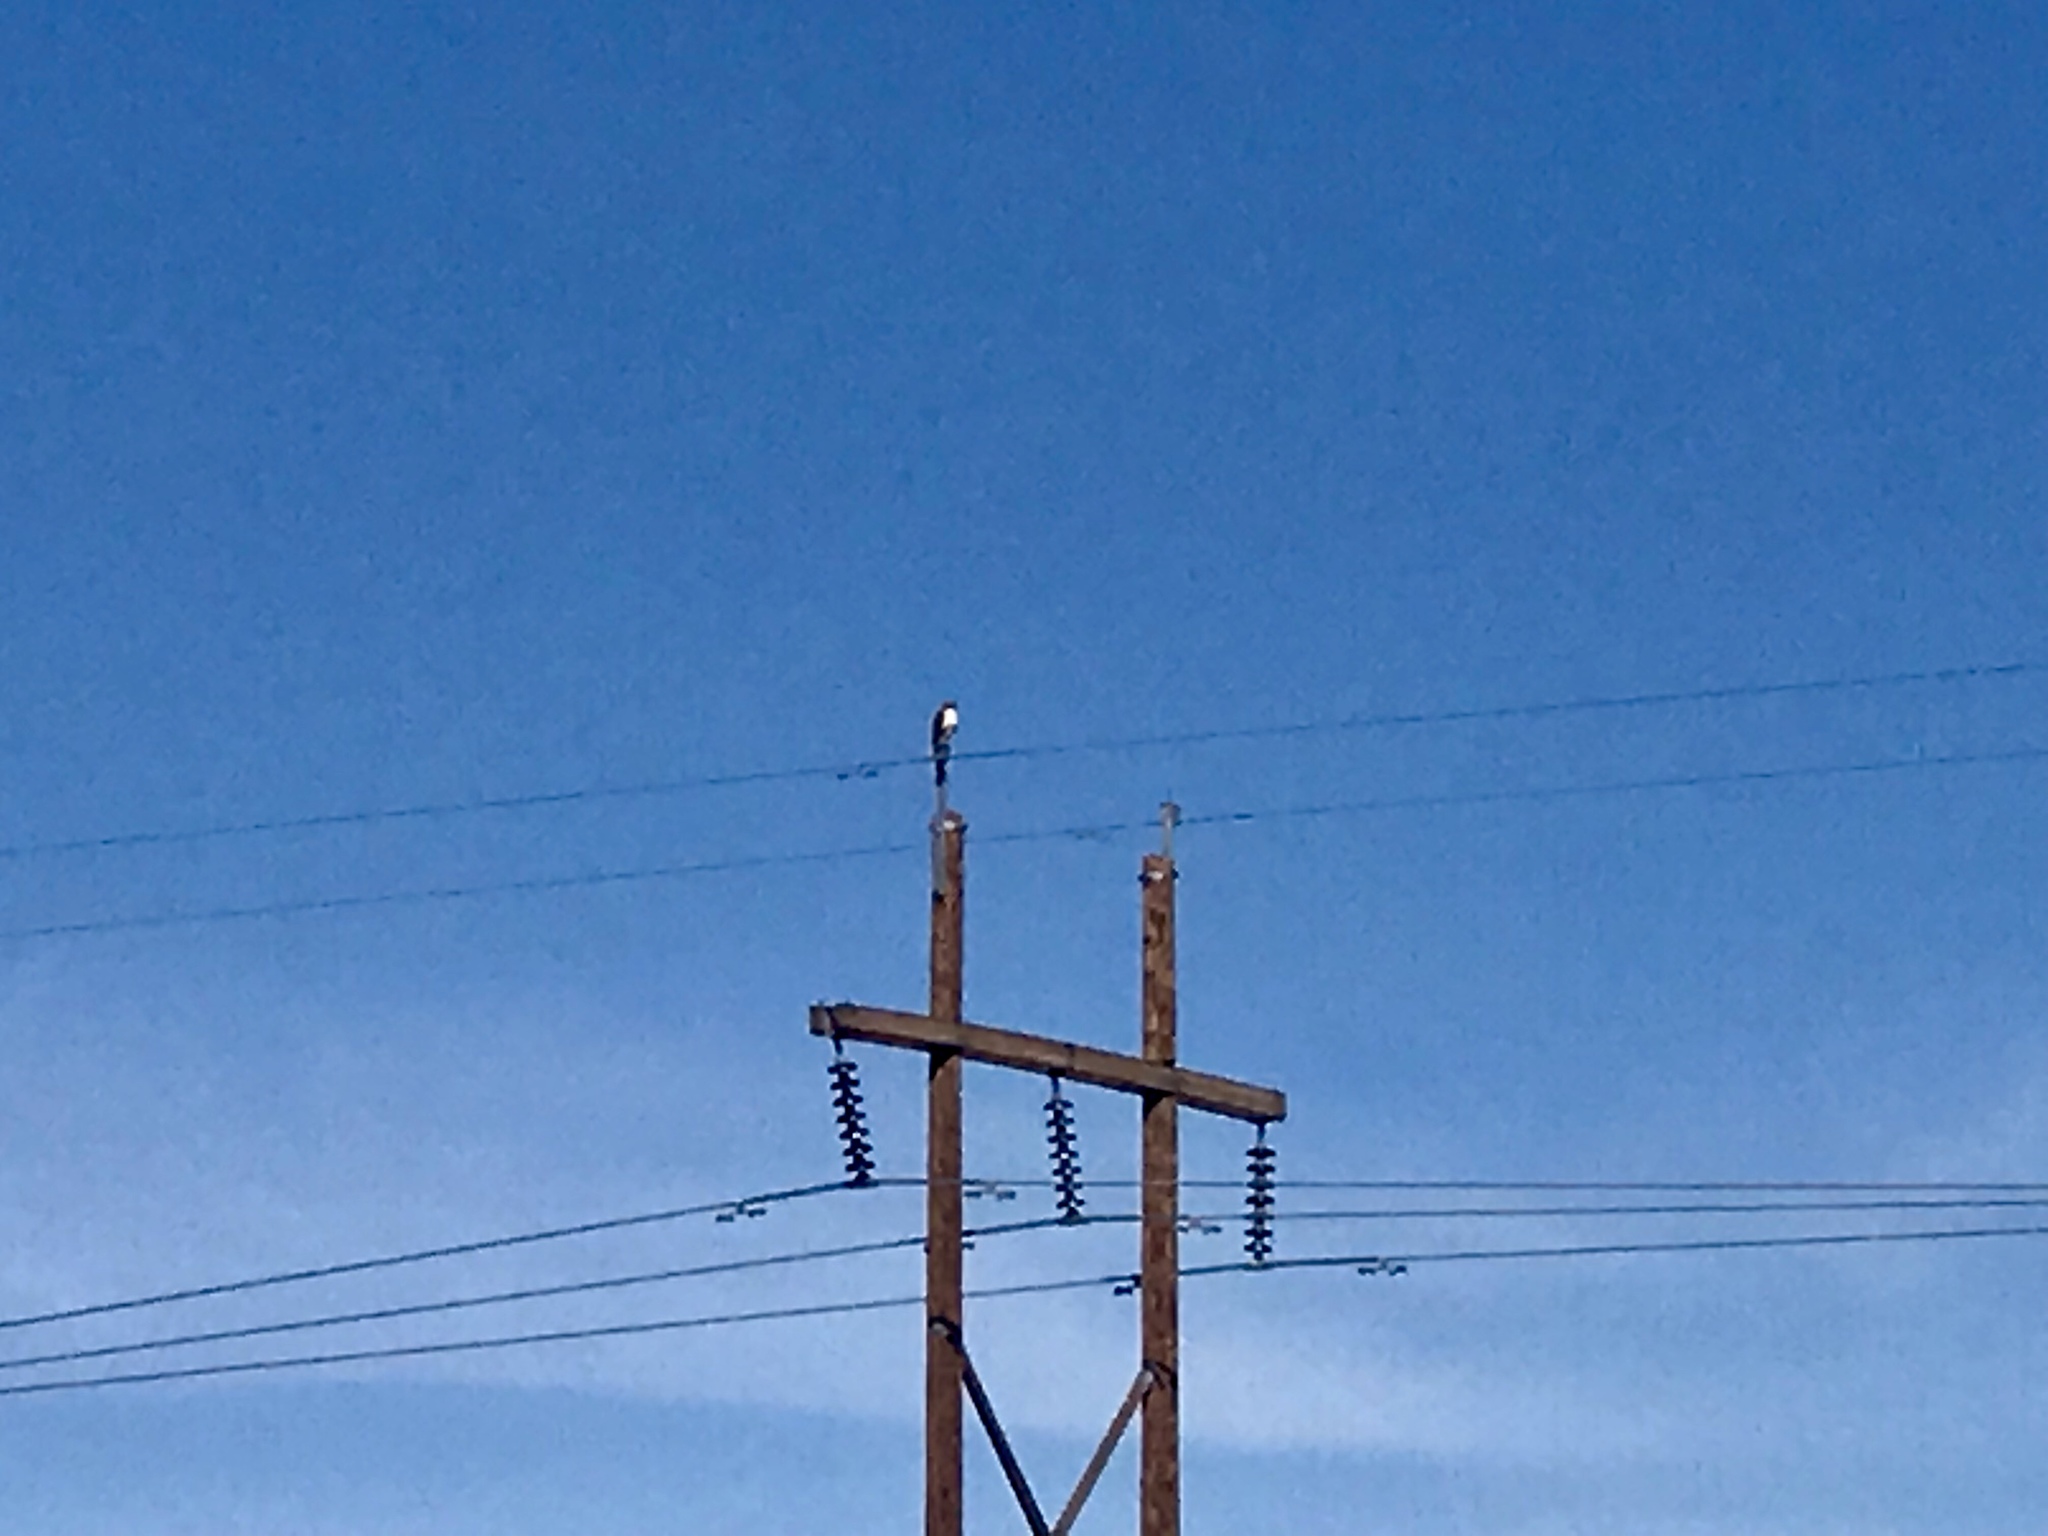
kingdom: Animalia
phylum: Chordata
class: Aves
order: Accipitriformes
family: Accipitridae
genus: Buteo
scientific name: Buteo jamaicensis
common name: Red-tailed hawk
